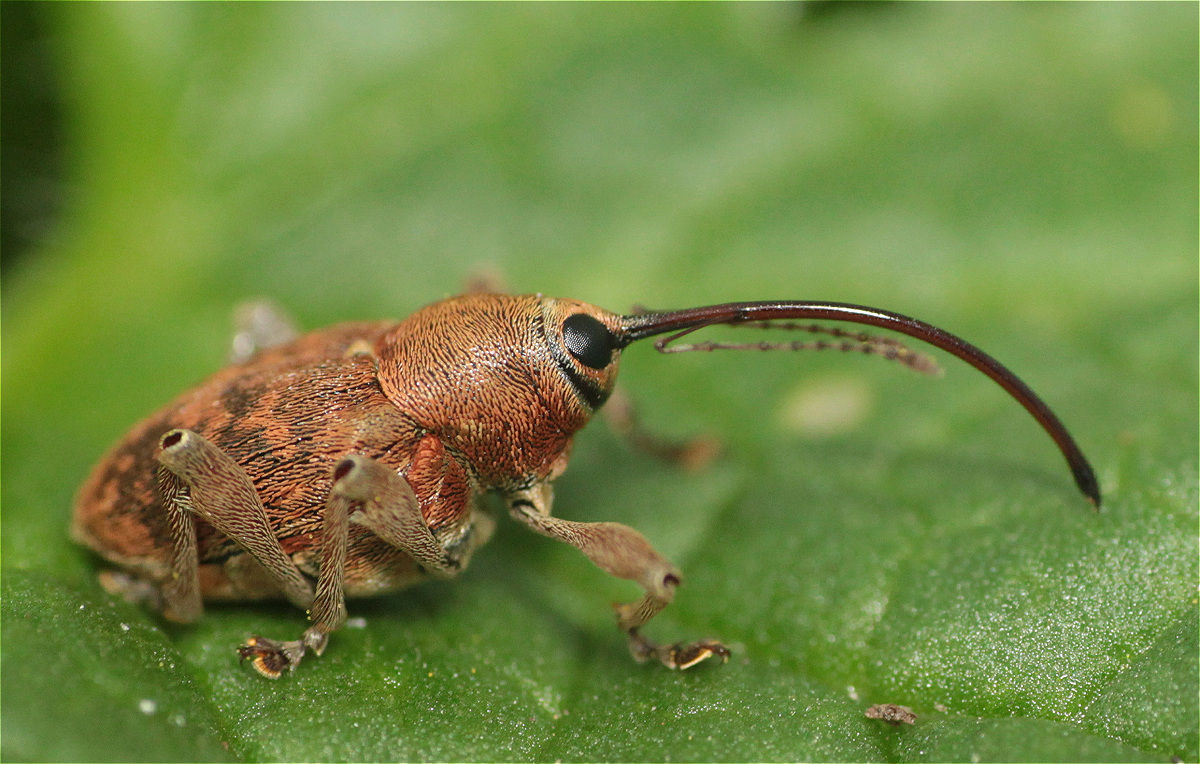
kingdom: Animalia
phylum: Arthropoda
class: Insecta
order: Coleoptera
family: Curculionidae
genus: Curculio
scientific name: Curculio glandium
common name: Acorn weevil
